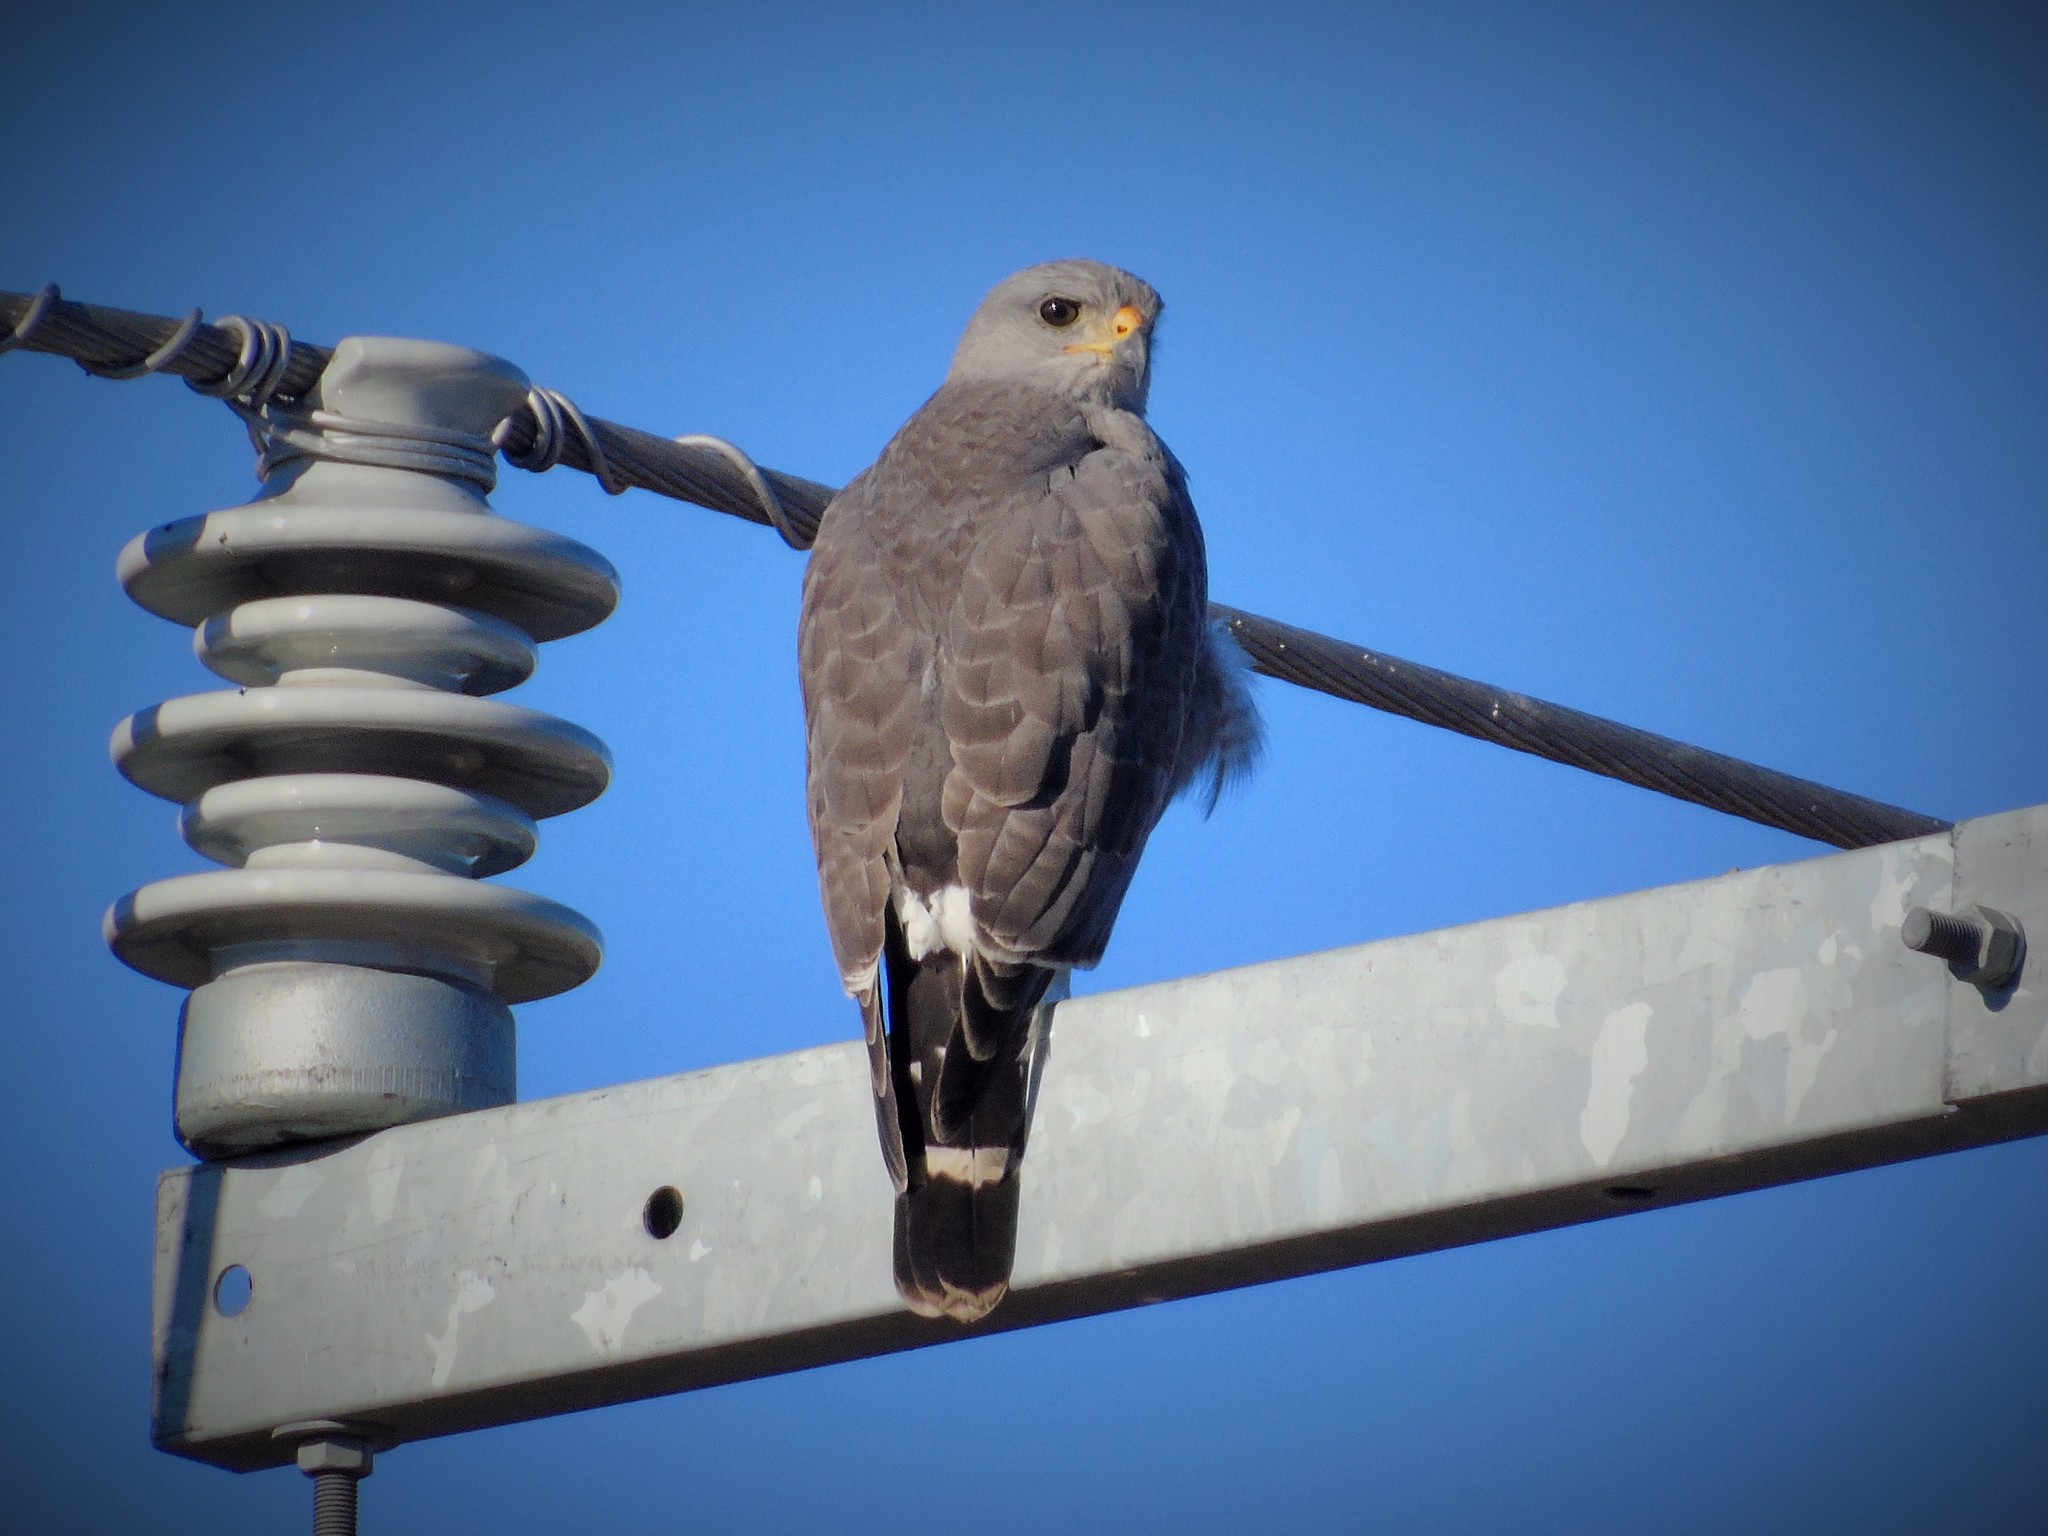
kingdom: Animalia
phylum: Chordata
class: Aves
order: Accipitriformes
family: Accipitridae
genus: Buteo
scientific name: Buteo nitidus
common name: Grey-lined hawk
